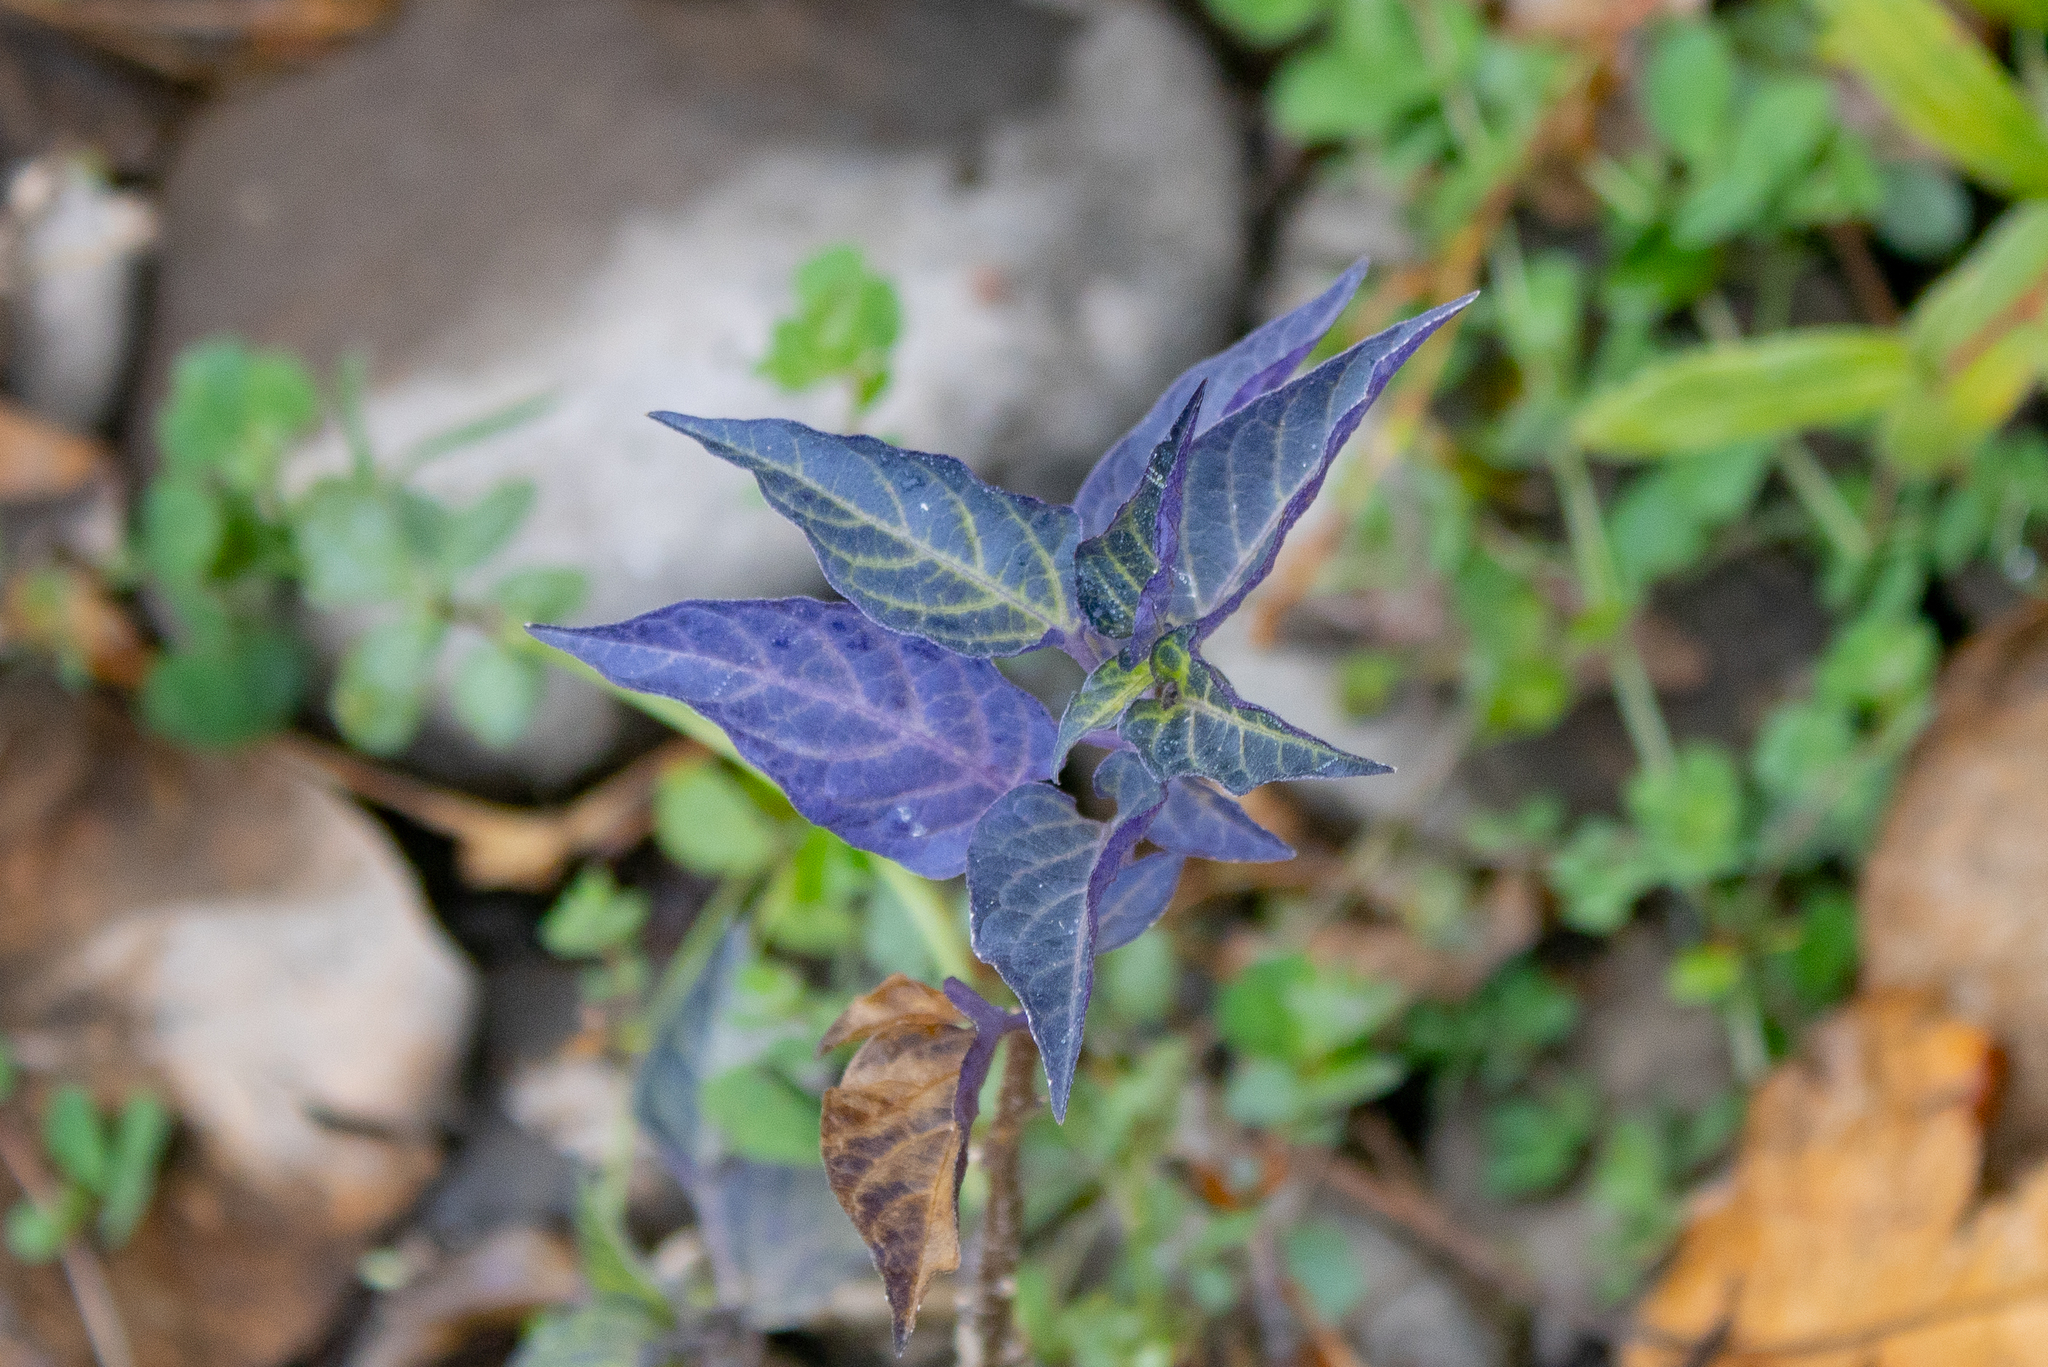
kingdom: Plantae
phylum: Tracheophyta
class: Magnoliopsida
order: Solanales
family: Solanaceae
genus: Solanum
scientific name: Solanum dulcamara
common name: Climbing nightshade
